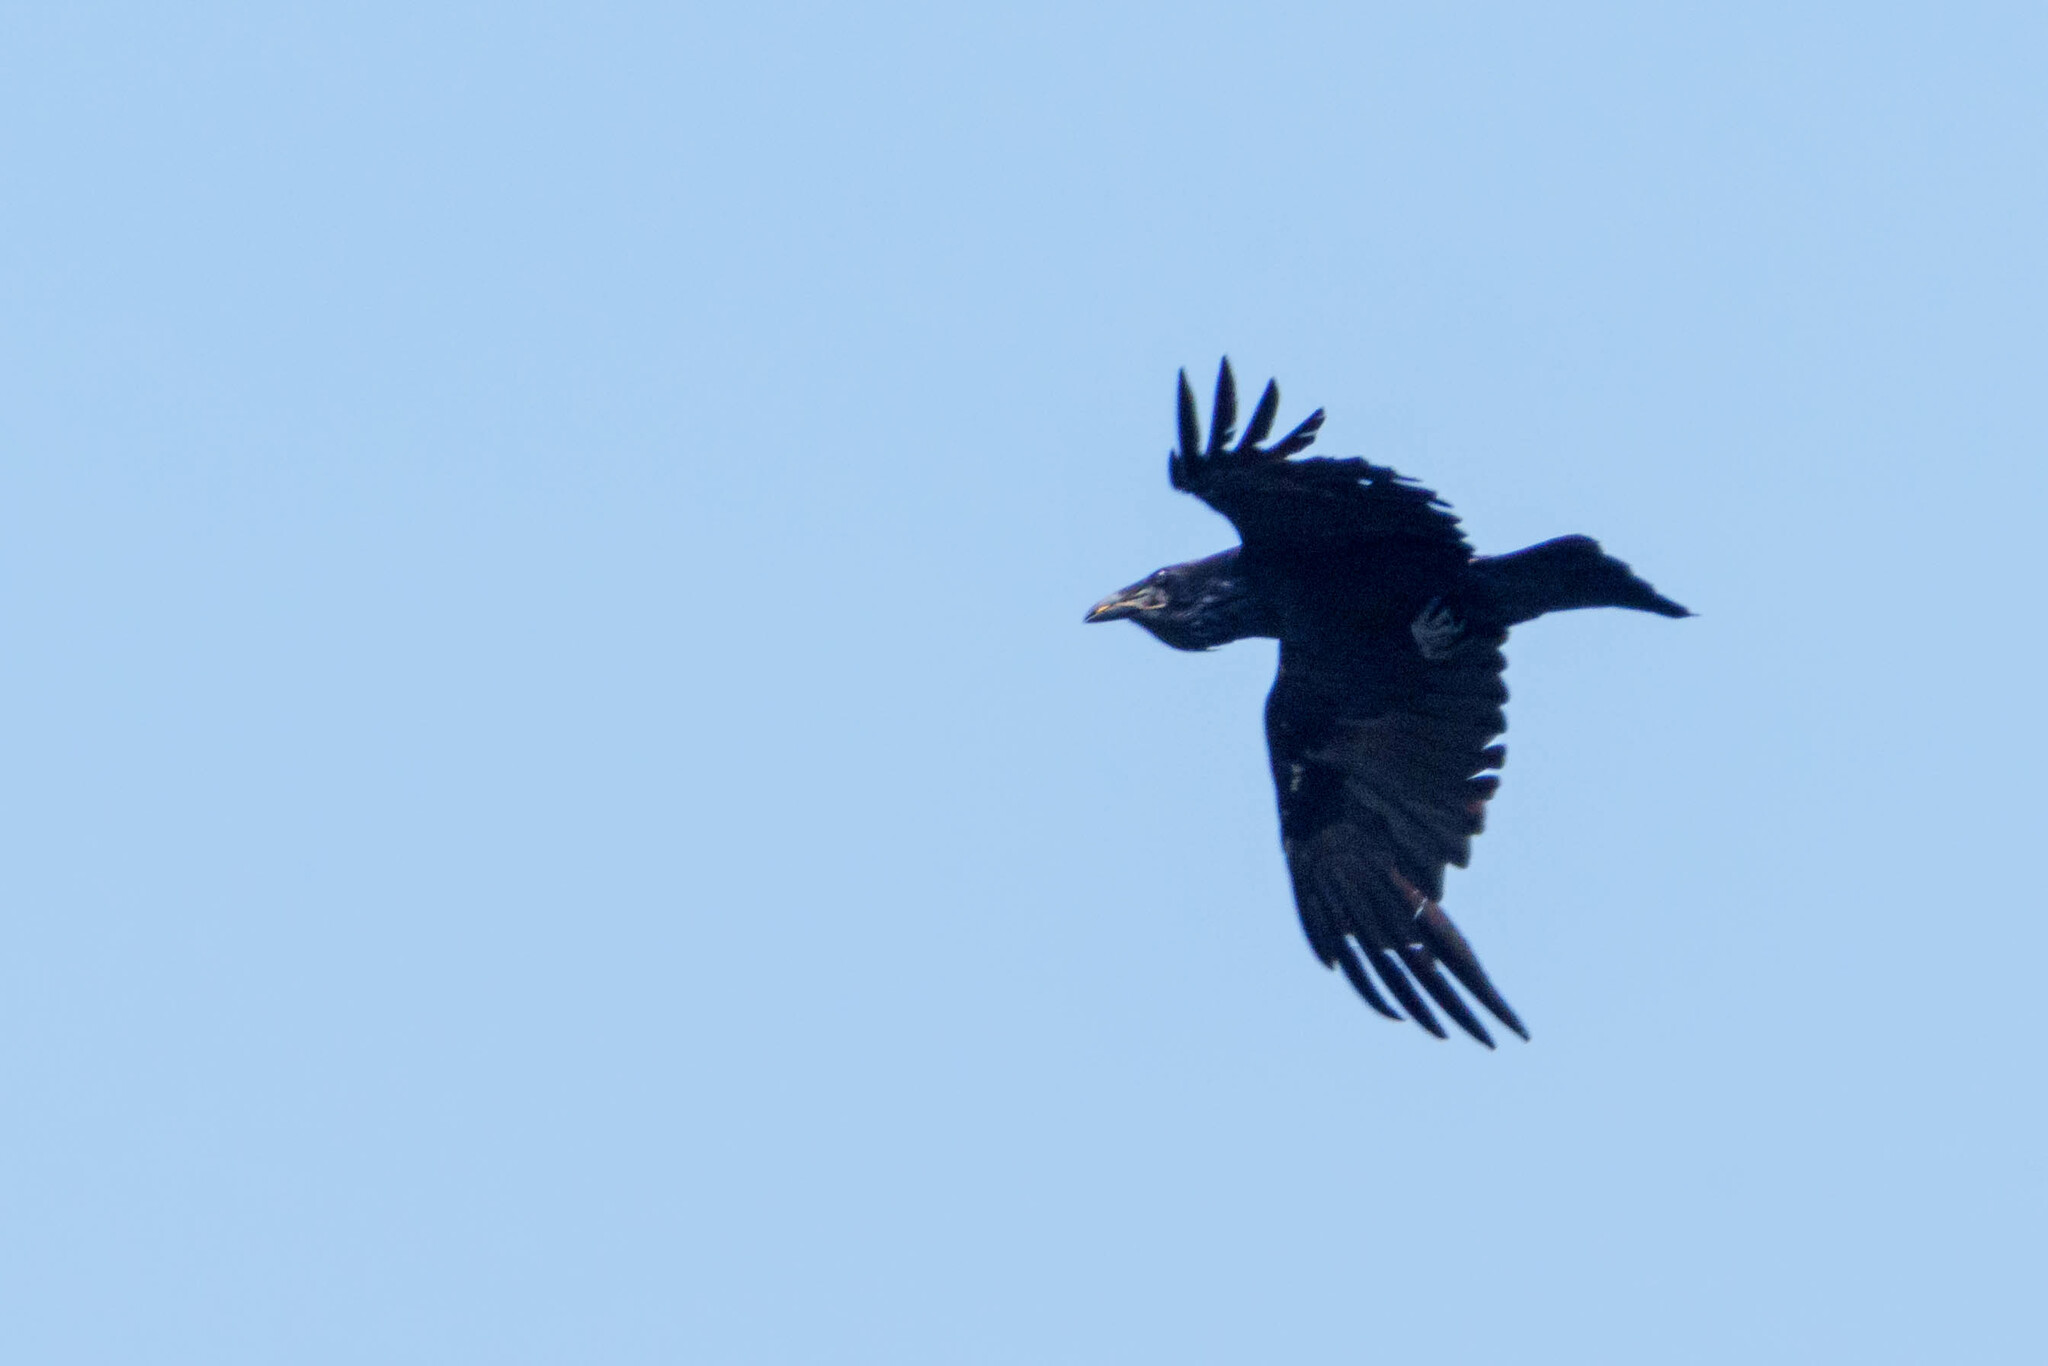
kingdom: Animalia
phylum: Chordata
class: Aves
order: Passeriformes
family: Corvidae
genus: Corvus
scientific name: Corvus corax
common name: Common raven
